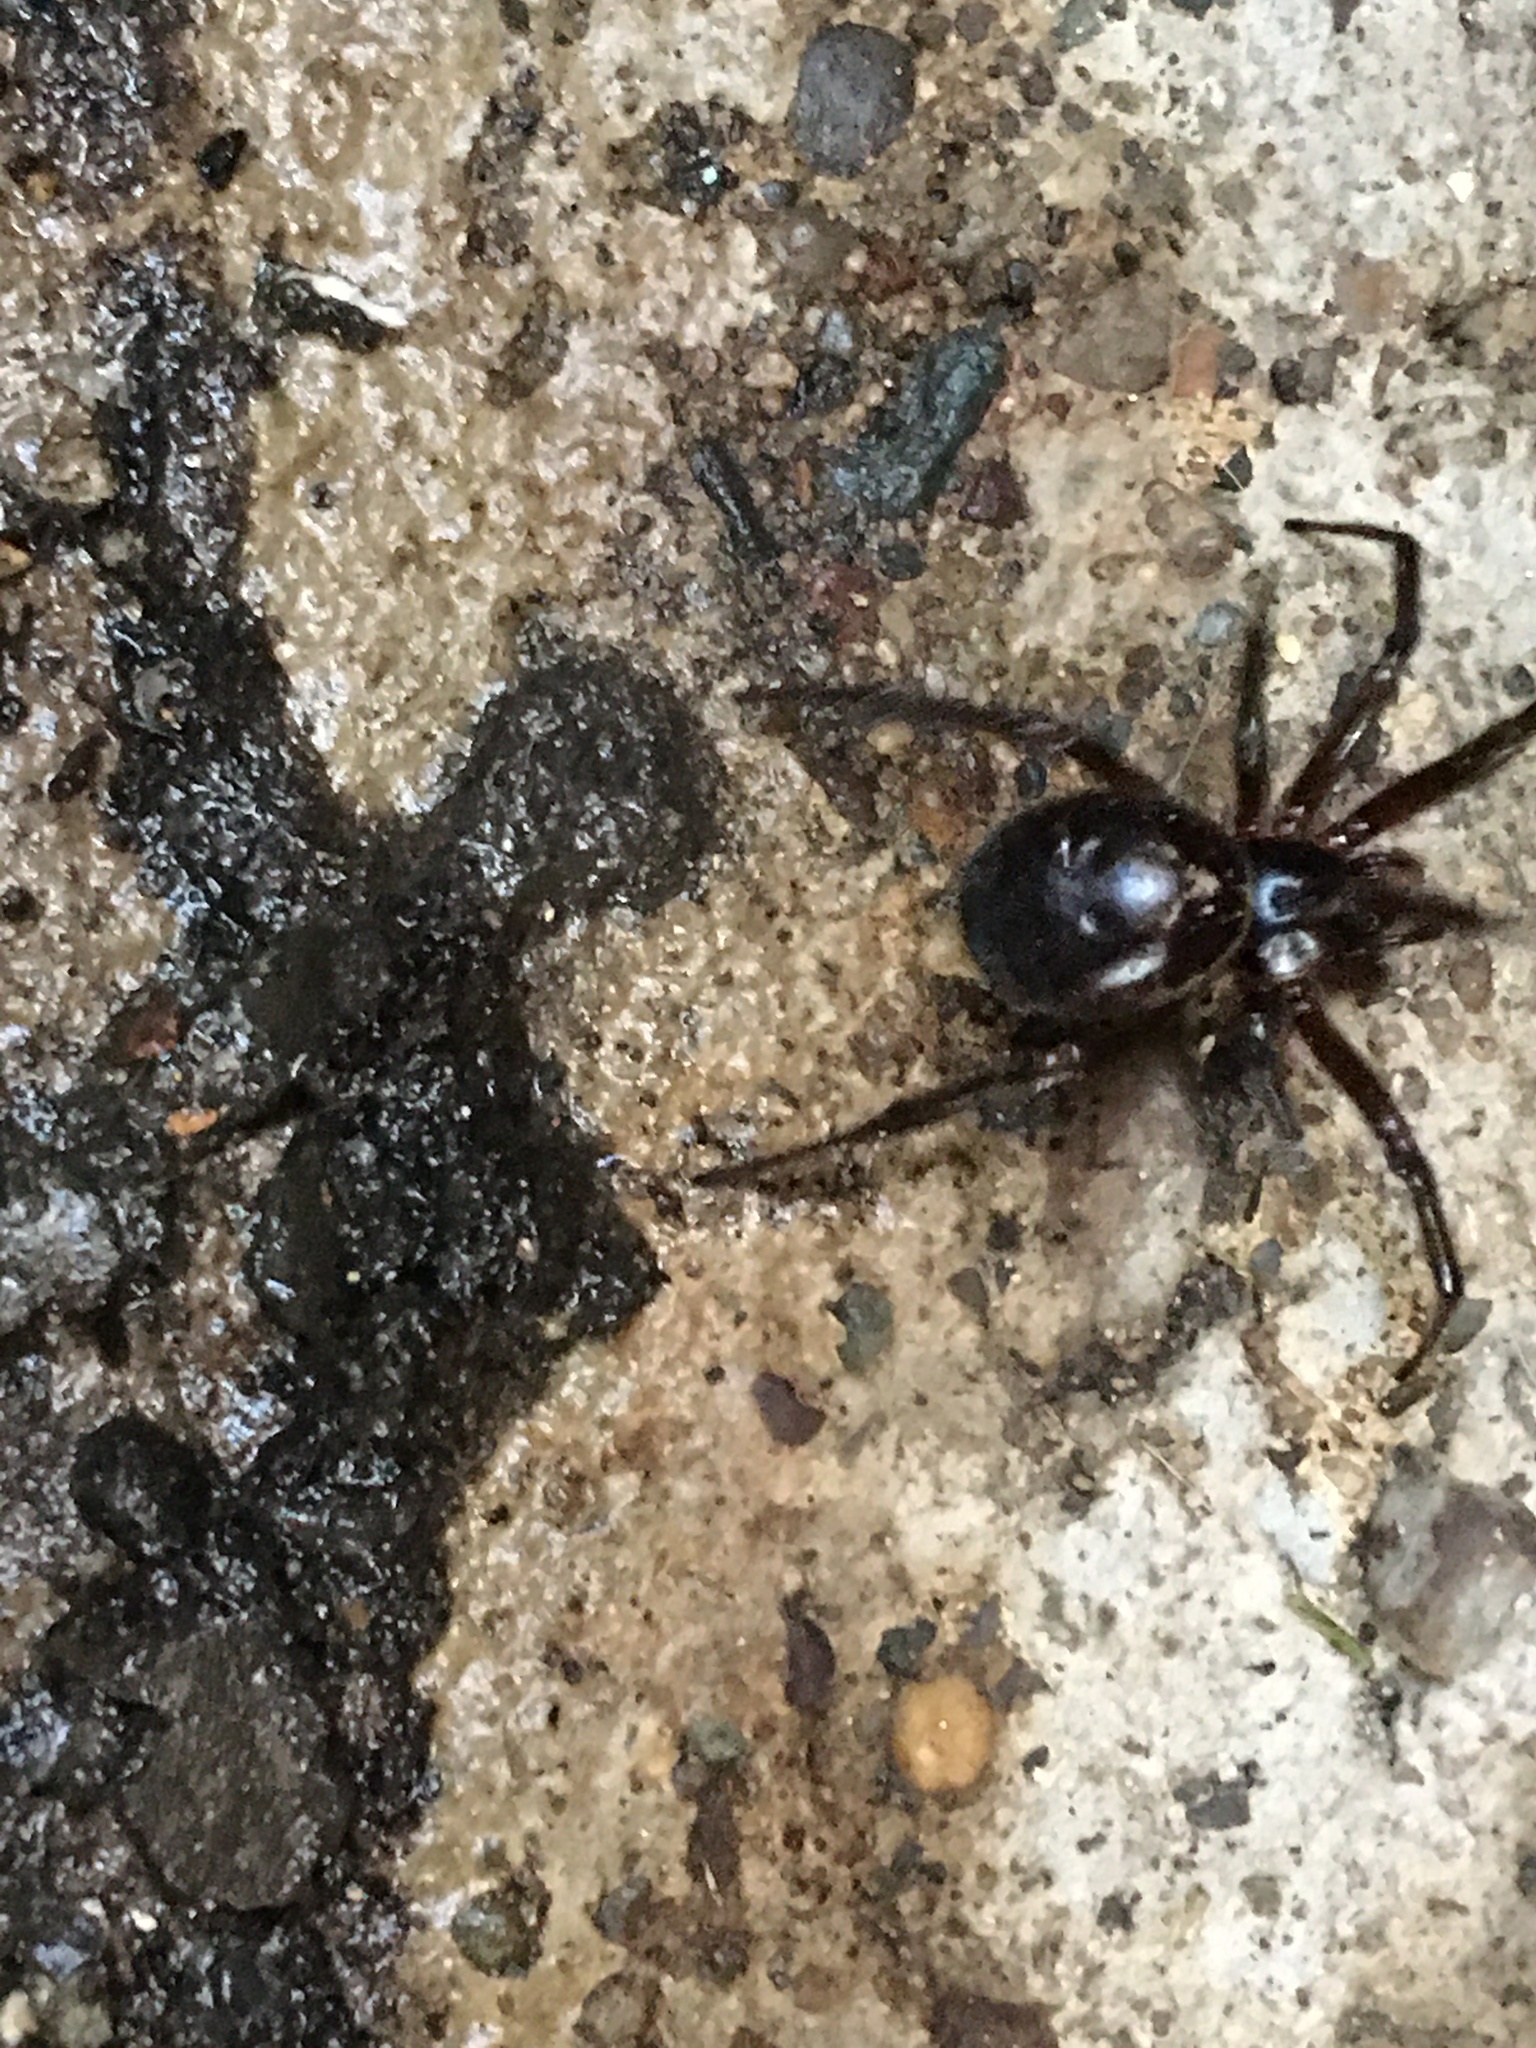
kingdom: Animalia
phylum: Arthropoda
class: Arachnida
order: Araneae
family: Theridiidae
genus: Steatoda
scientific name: Steatoda nobilis
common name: Cobweb weaver
